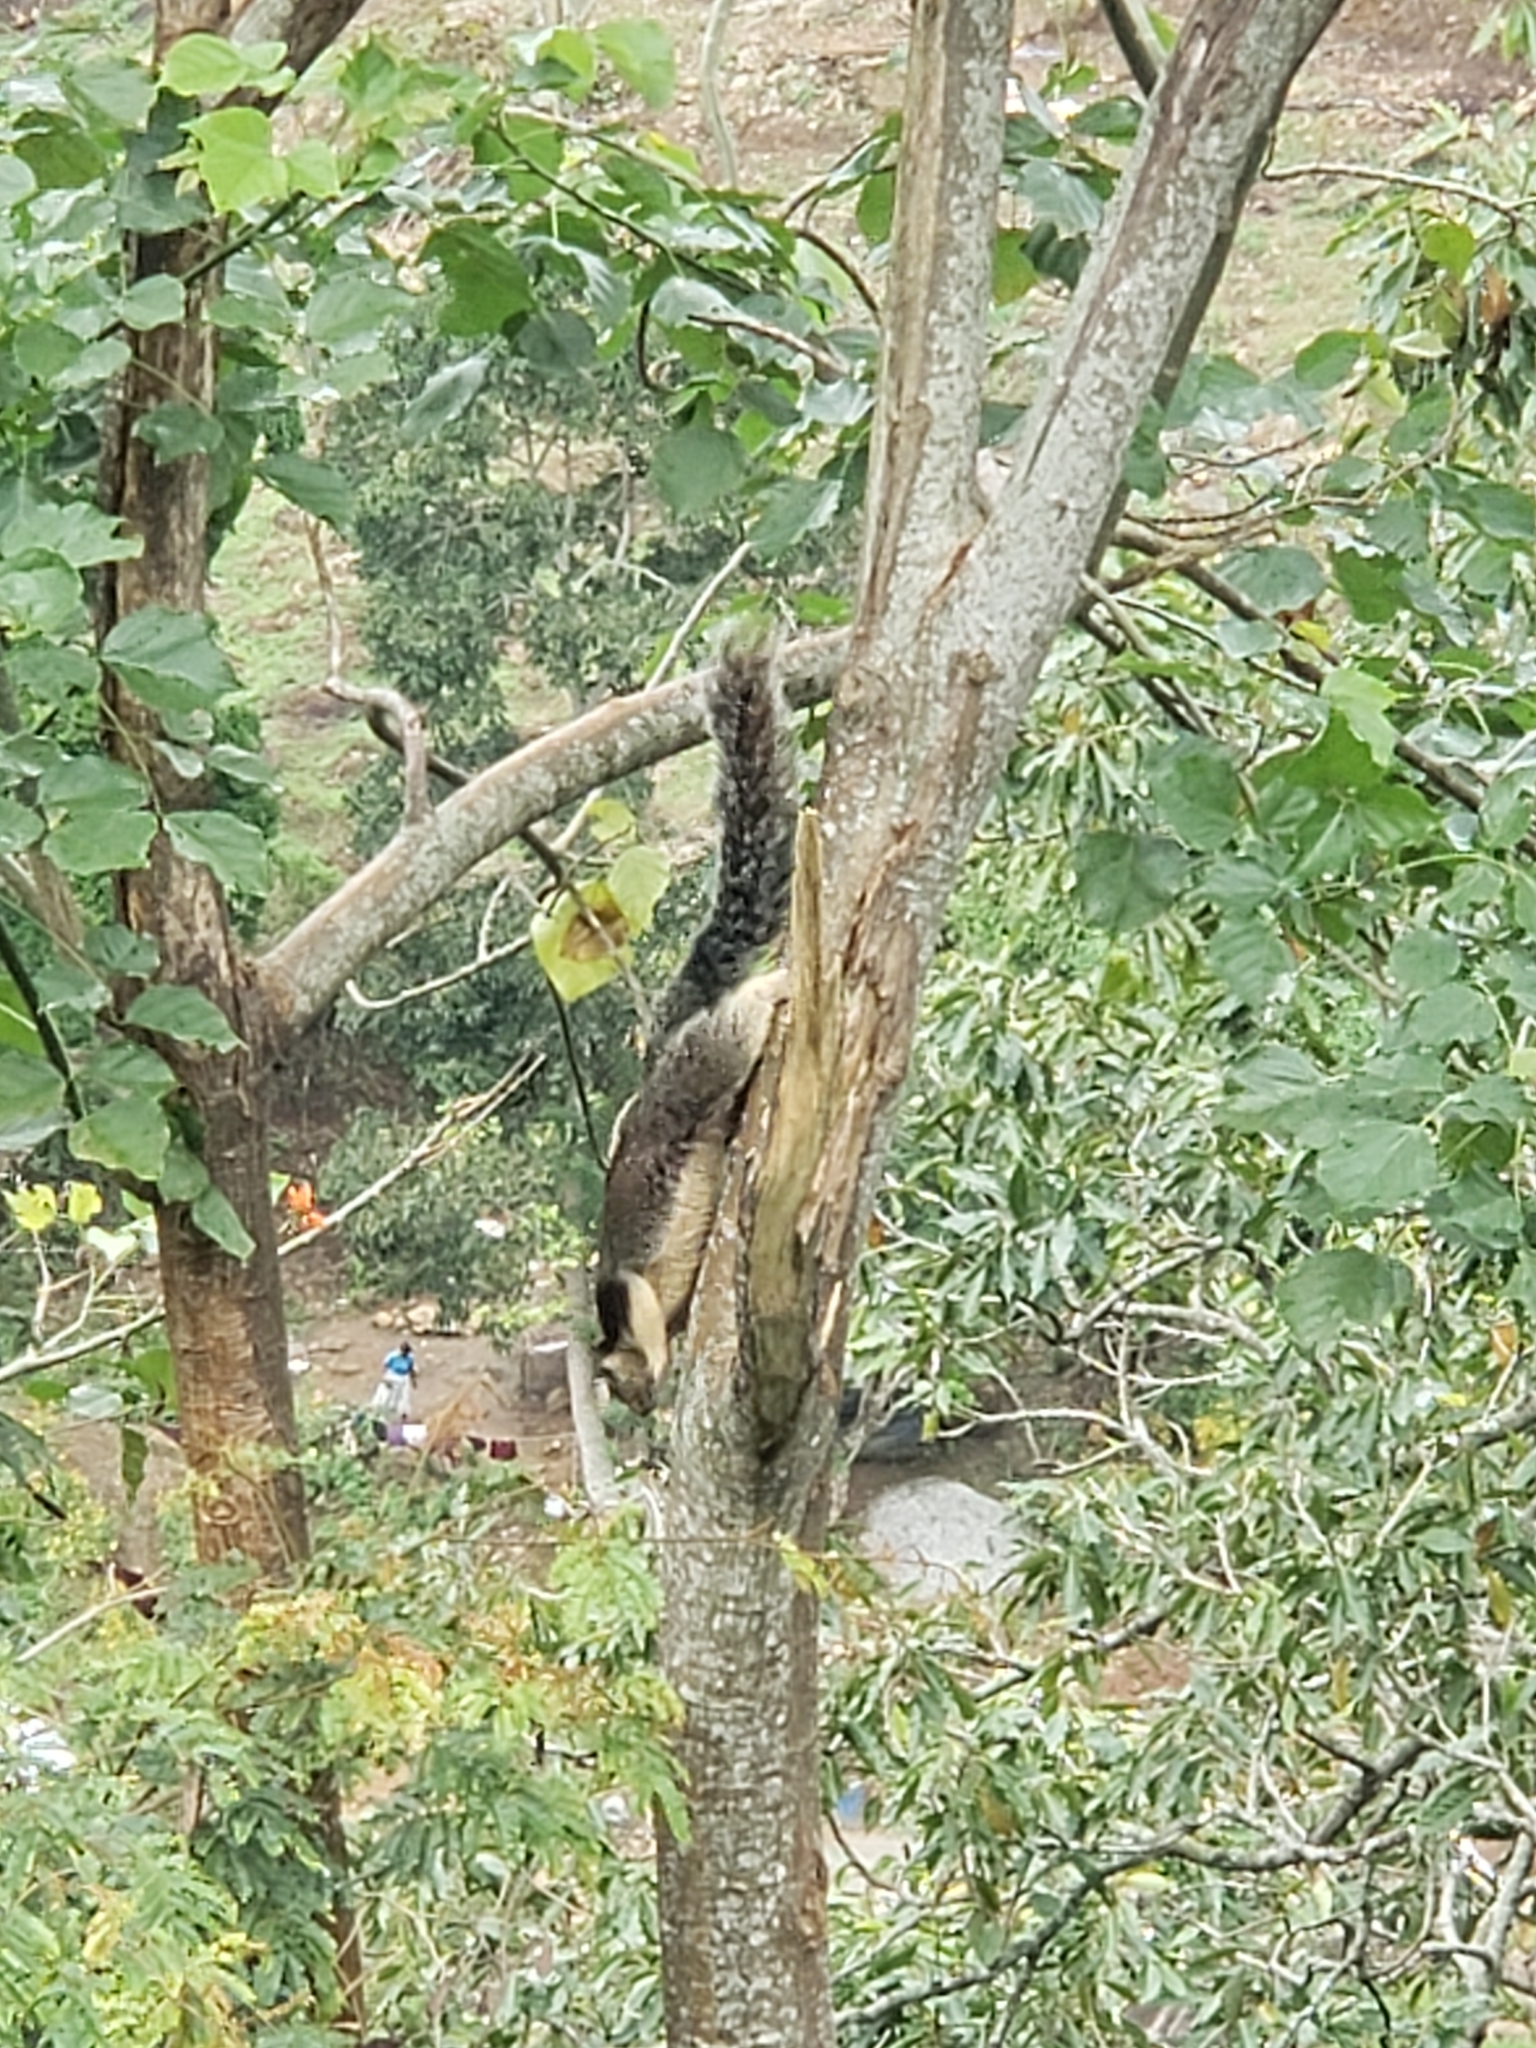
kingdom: Animalia
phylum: Chordata
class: Mammalia
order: Rodentia
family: Sciuridae
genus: Ratufa
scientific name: Ratufa macroura
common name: Sri lankan giant squirrel
